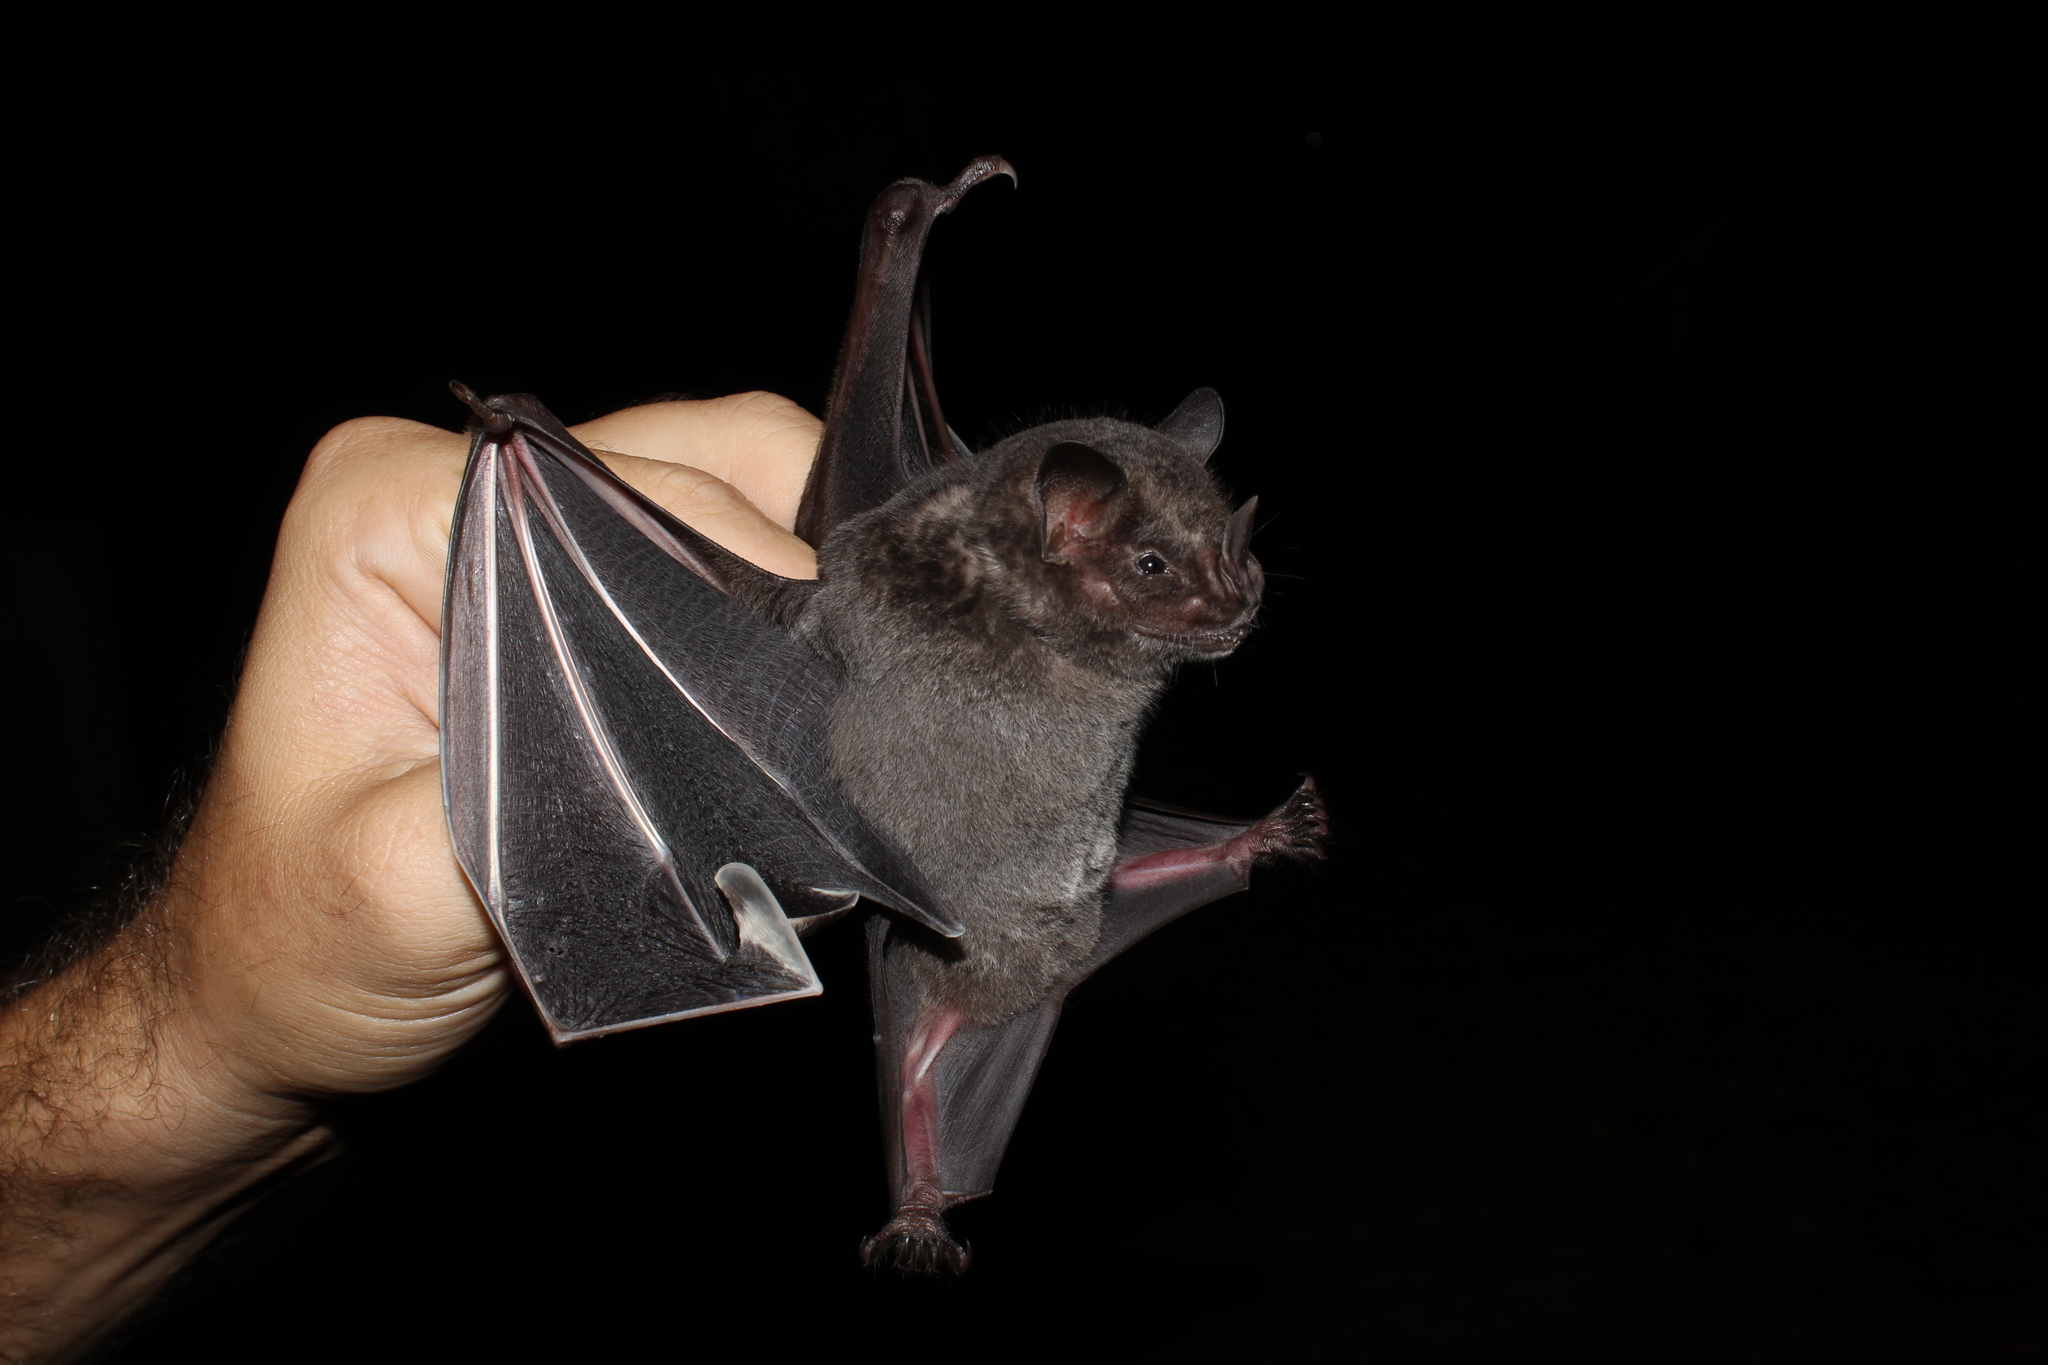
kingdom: Animalia
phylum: Chordata
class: Mammalia
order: Chiroptera
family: Phyllostomidae
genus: Artibeus
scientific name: Artibeus obscurus
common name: Dark fruit-eating bat
